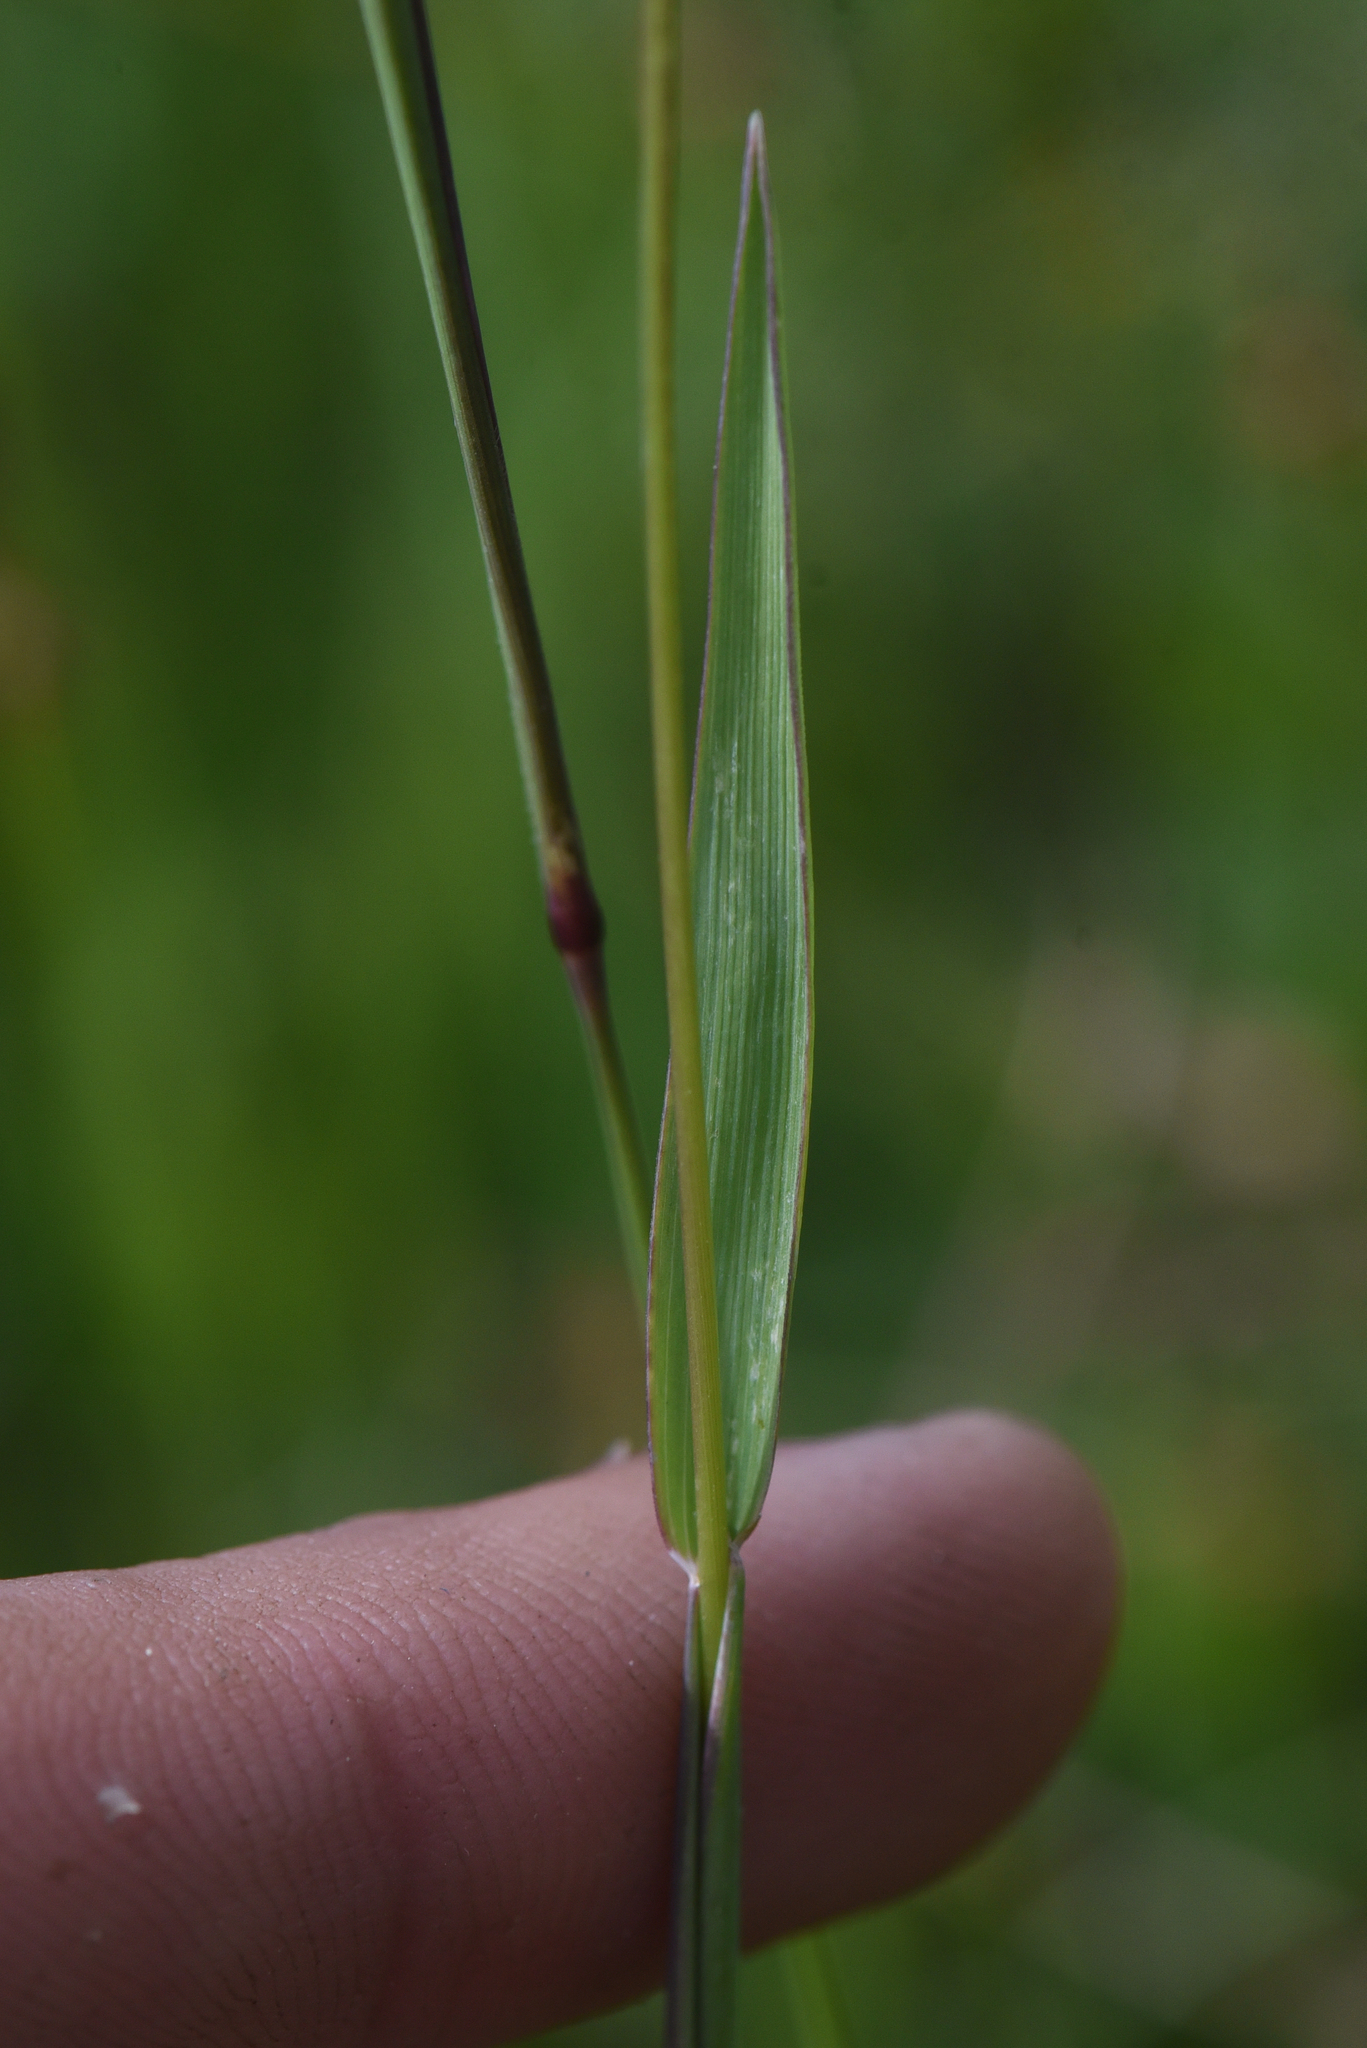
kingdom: Plantae
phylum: Tracheophyta
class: Liliopsida
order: Poales
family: Poaceae
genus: Phleum
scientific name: Phleum alpinum
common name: Alpine cat's-tail
